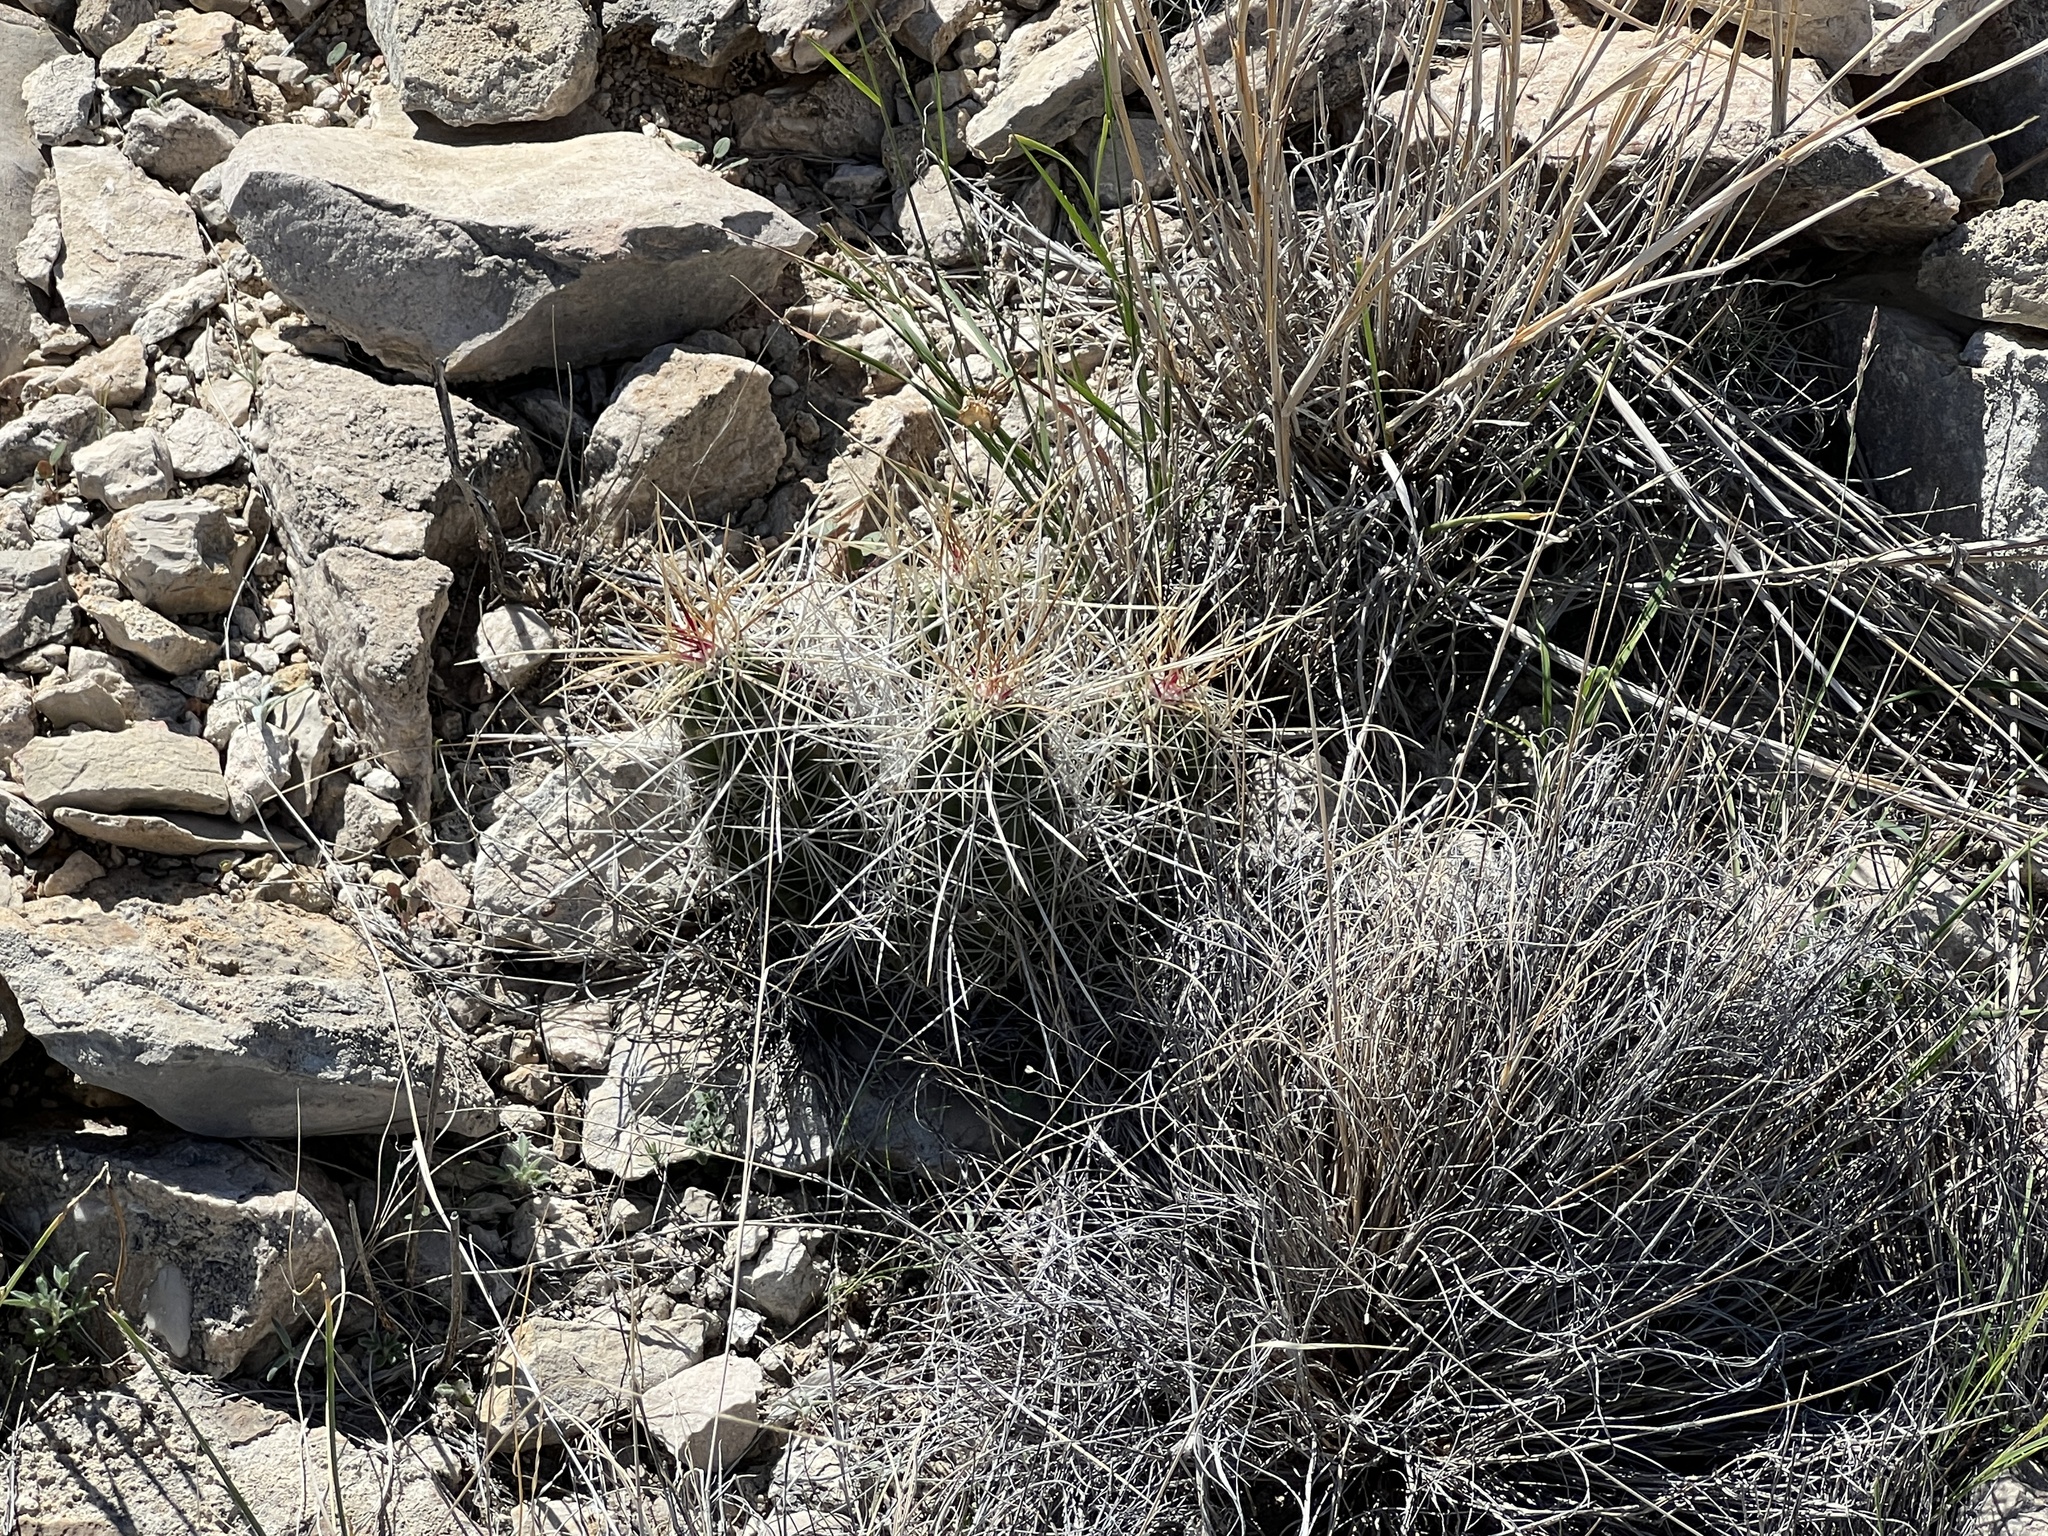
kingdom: Plantae
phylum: Tracheophyta
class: Magnoliopsida
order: Caryophyllales
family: Cactaceae
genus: Echinocereus
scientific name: Echinocereus stramineus
